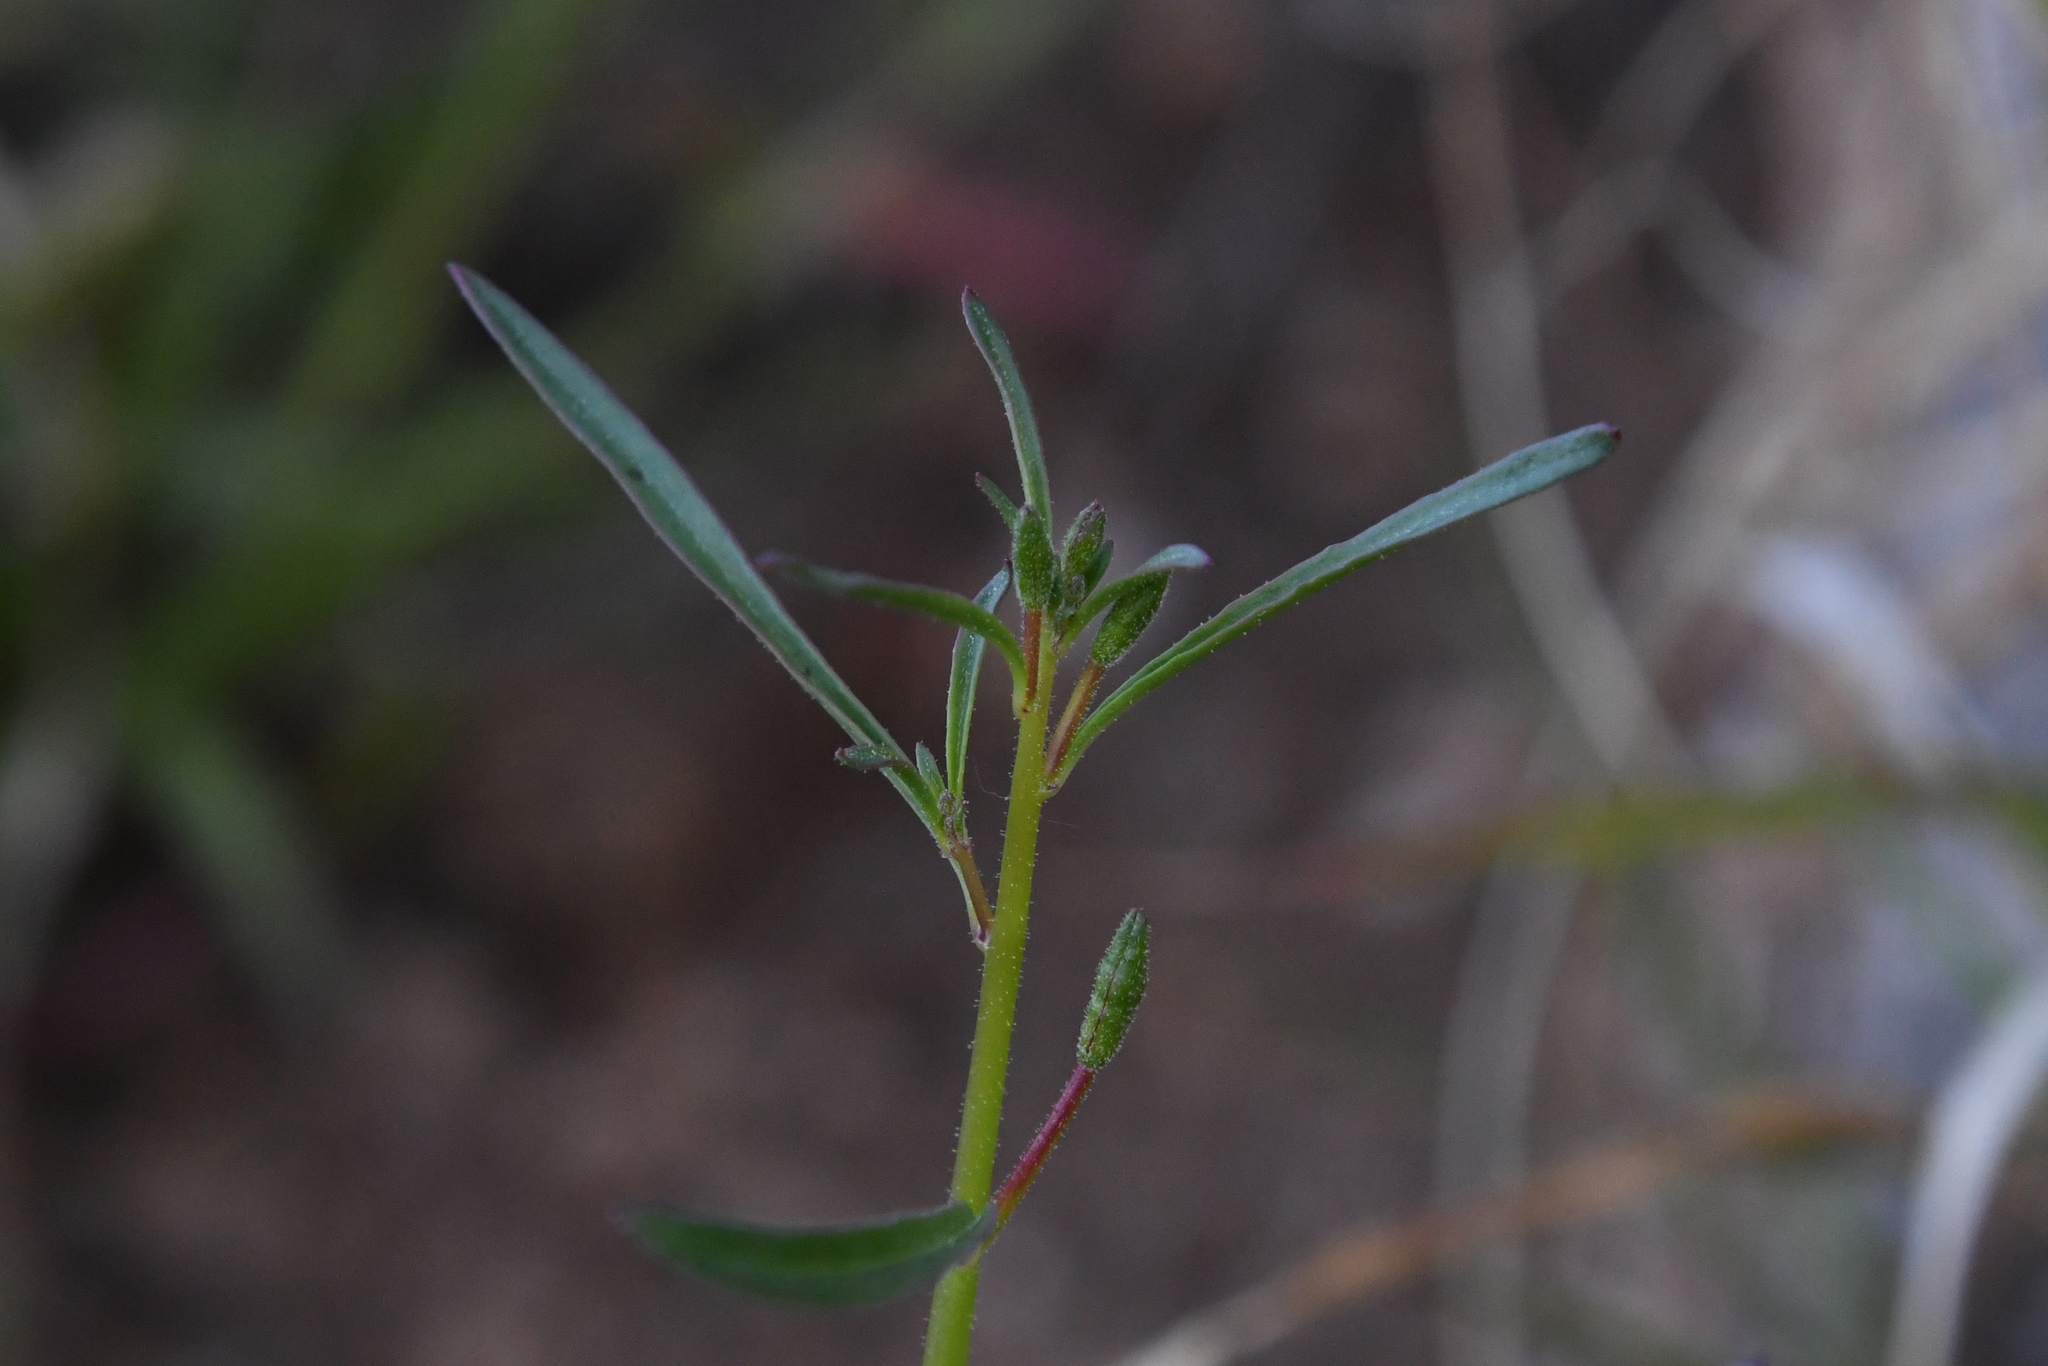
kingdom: Plantae
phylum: Tracheophyta
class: Magnoliopsida
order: Myrtales
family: Onagraceae
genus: Eulobus
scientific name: Eulobus californicus
